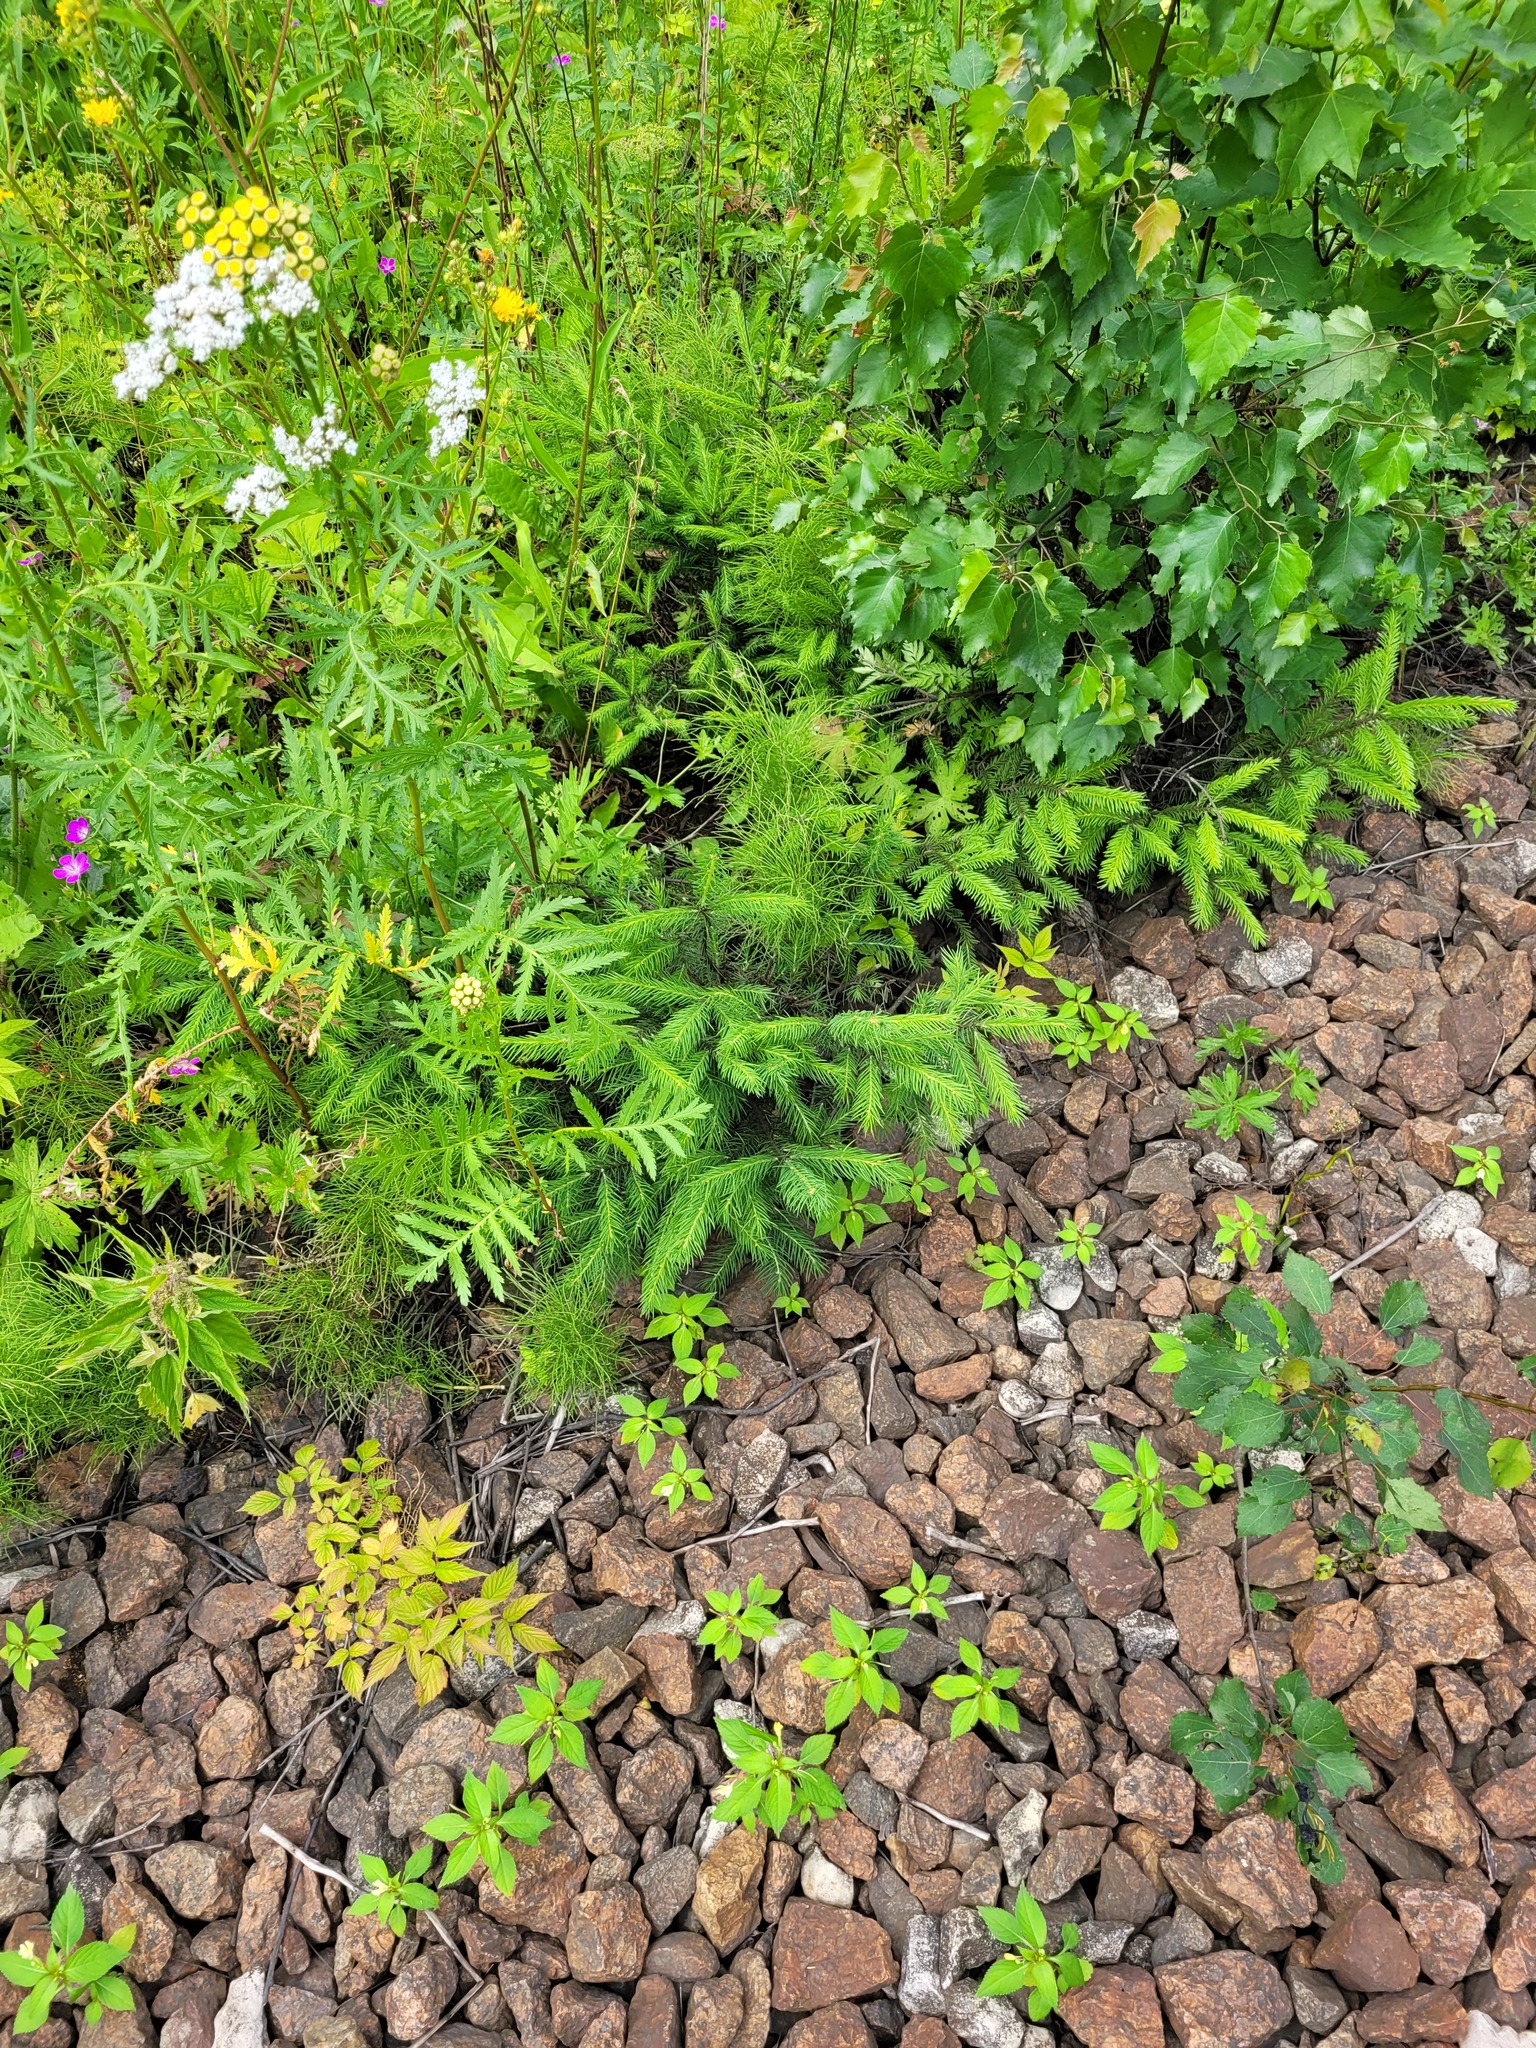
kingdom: Plantae
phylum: Tracheophyta
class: Pinopsida
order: Pinales
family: Pinaceae
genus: Picea
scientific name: Picea abies
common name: Norway spruce
